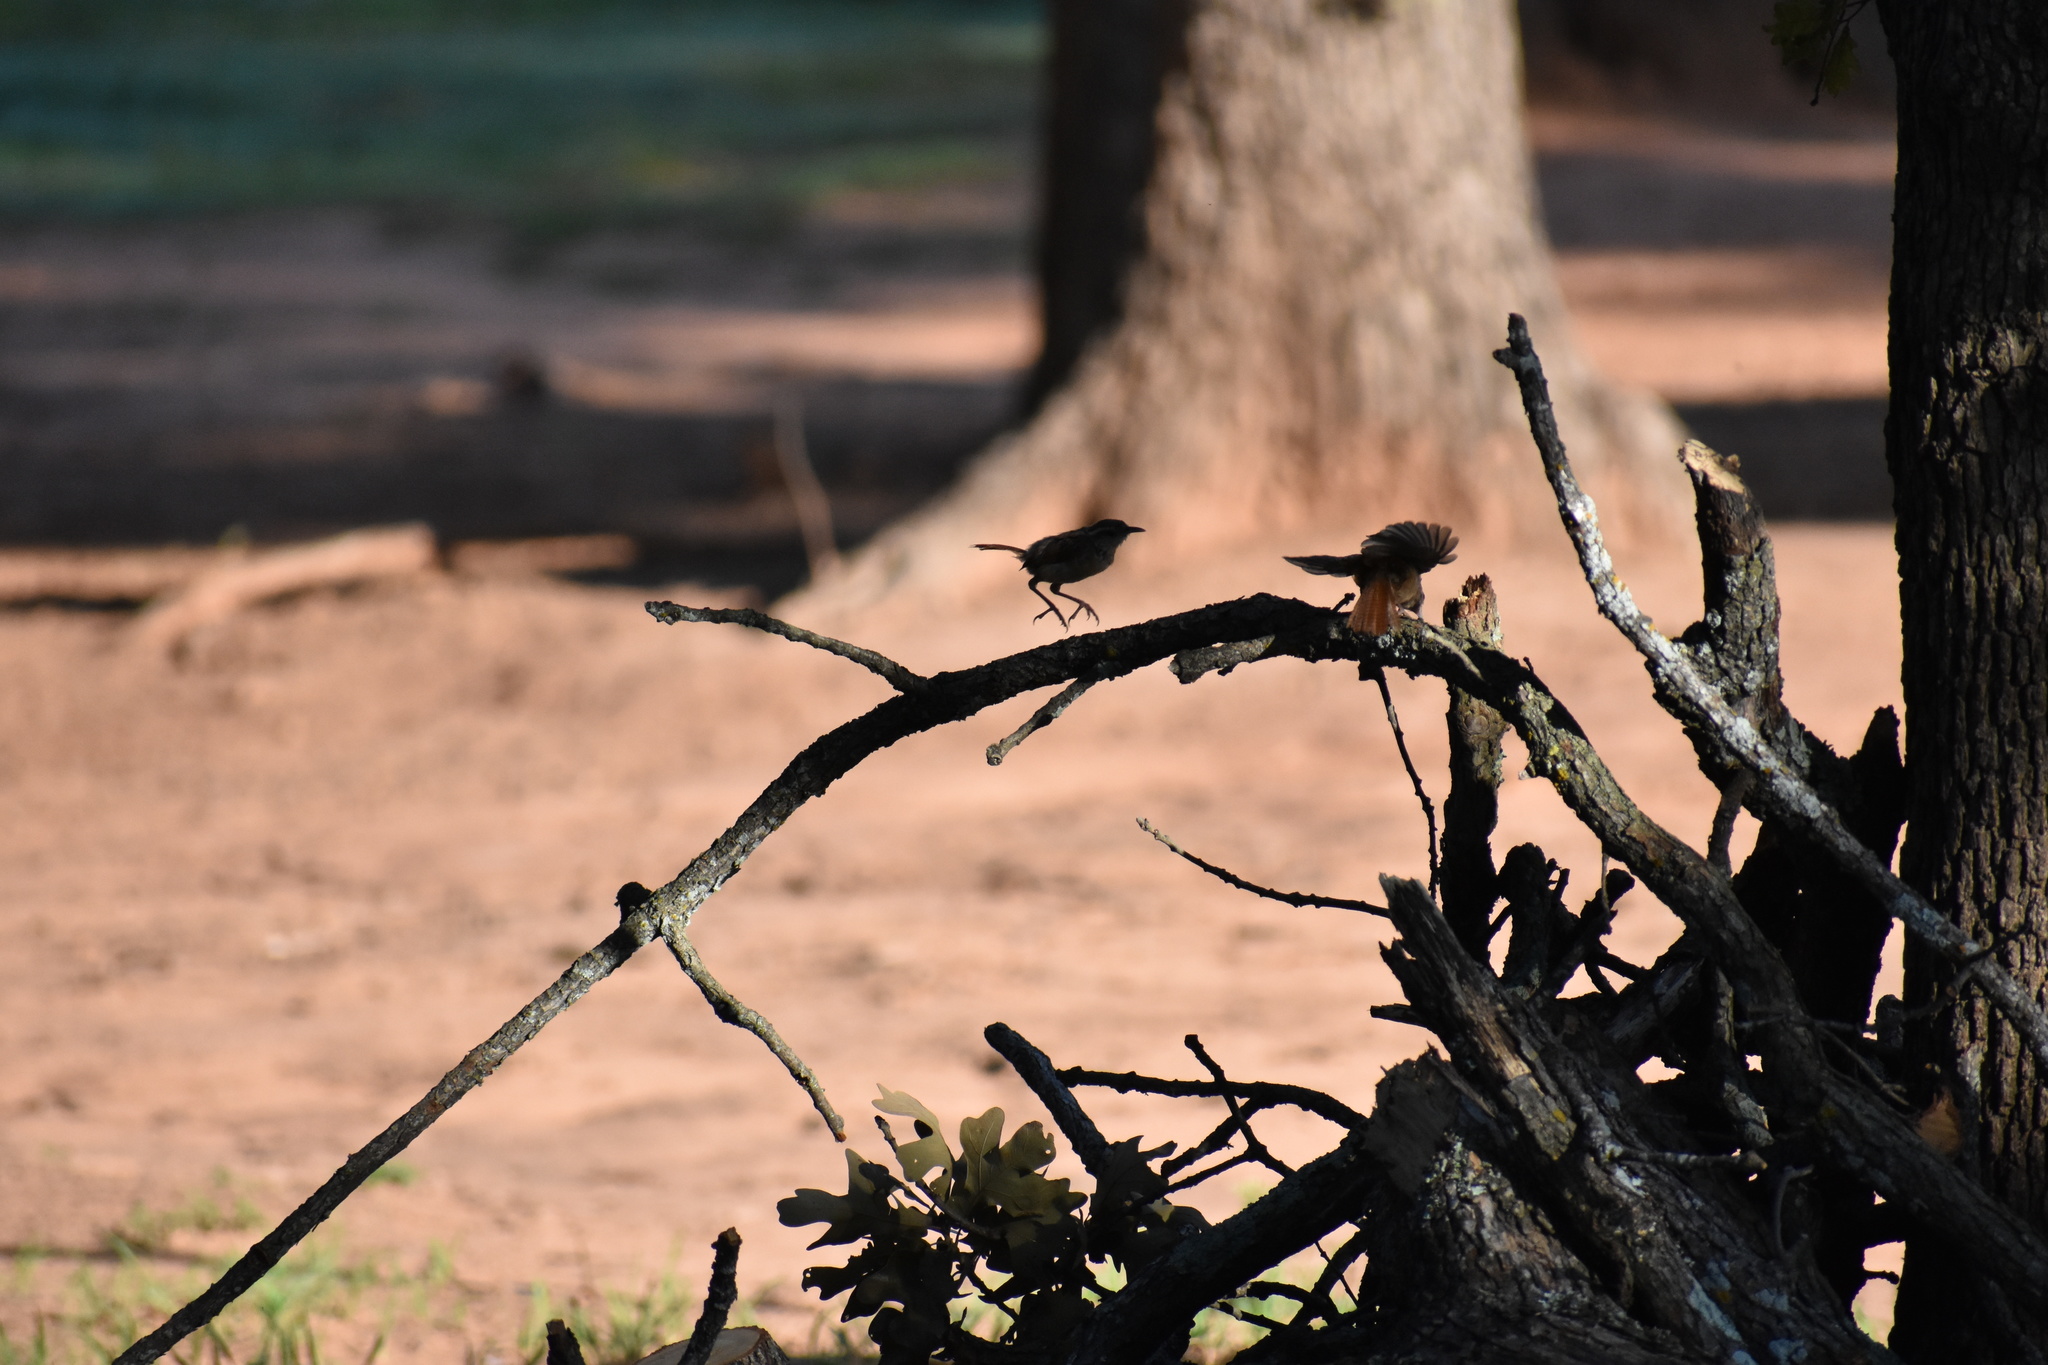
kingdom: Animalia
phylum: Chordata
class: Aves
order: Passeriformes
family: Troglodytidae
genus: Thryothorus
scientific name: Thryothorus ludovicianus
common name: Carolina wren
